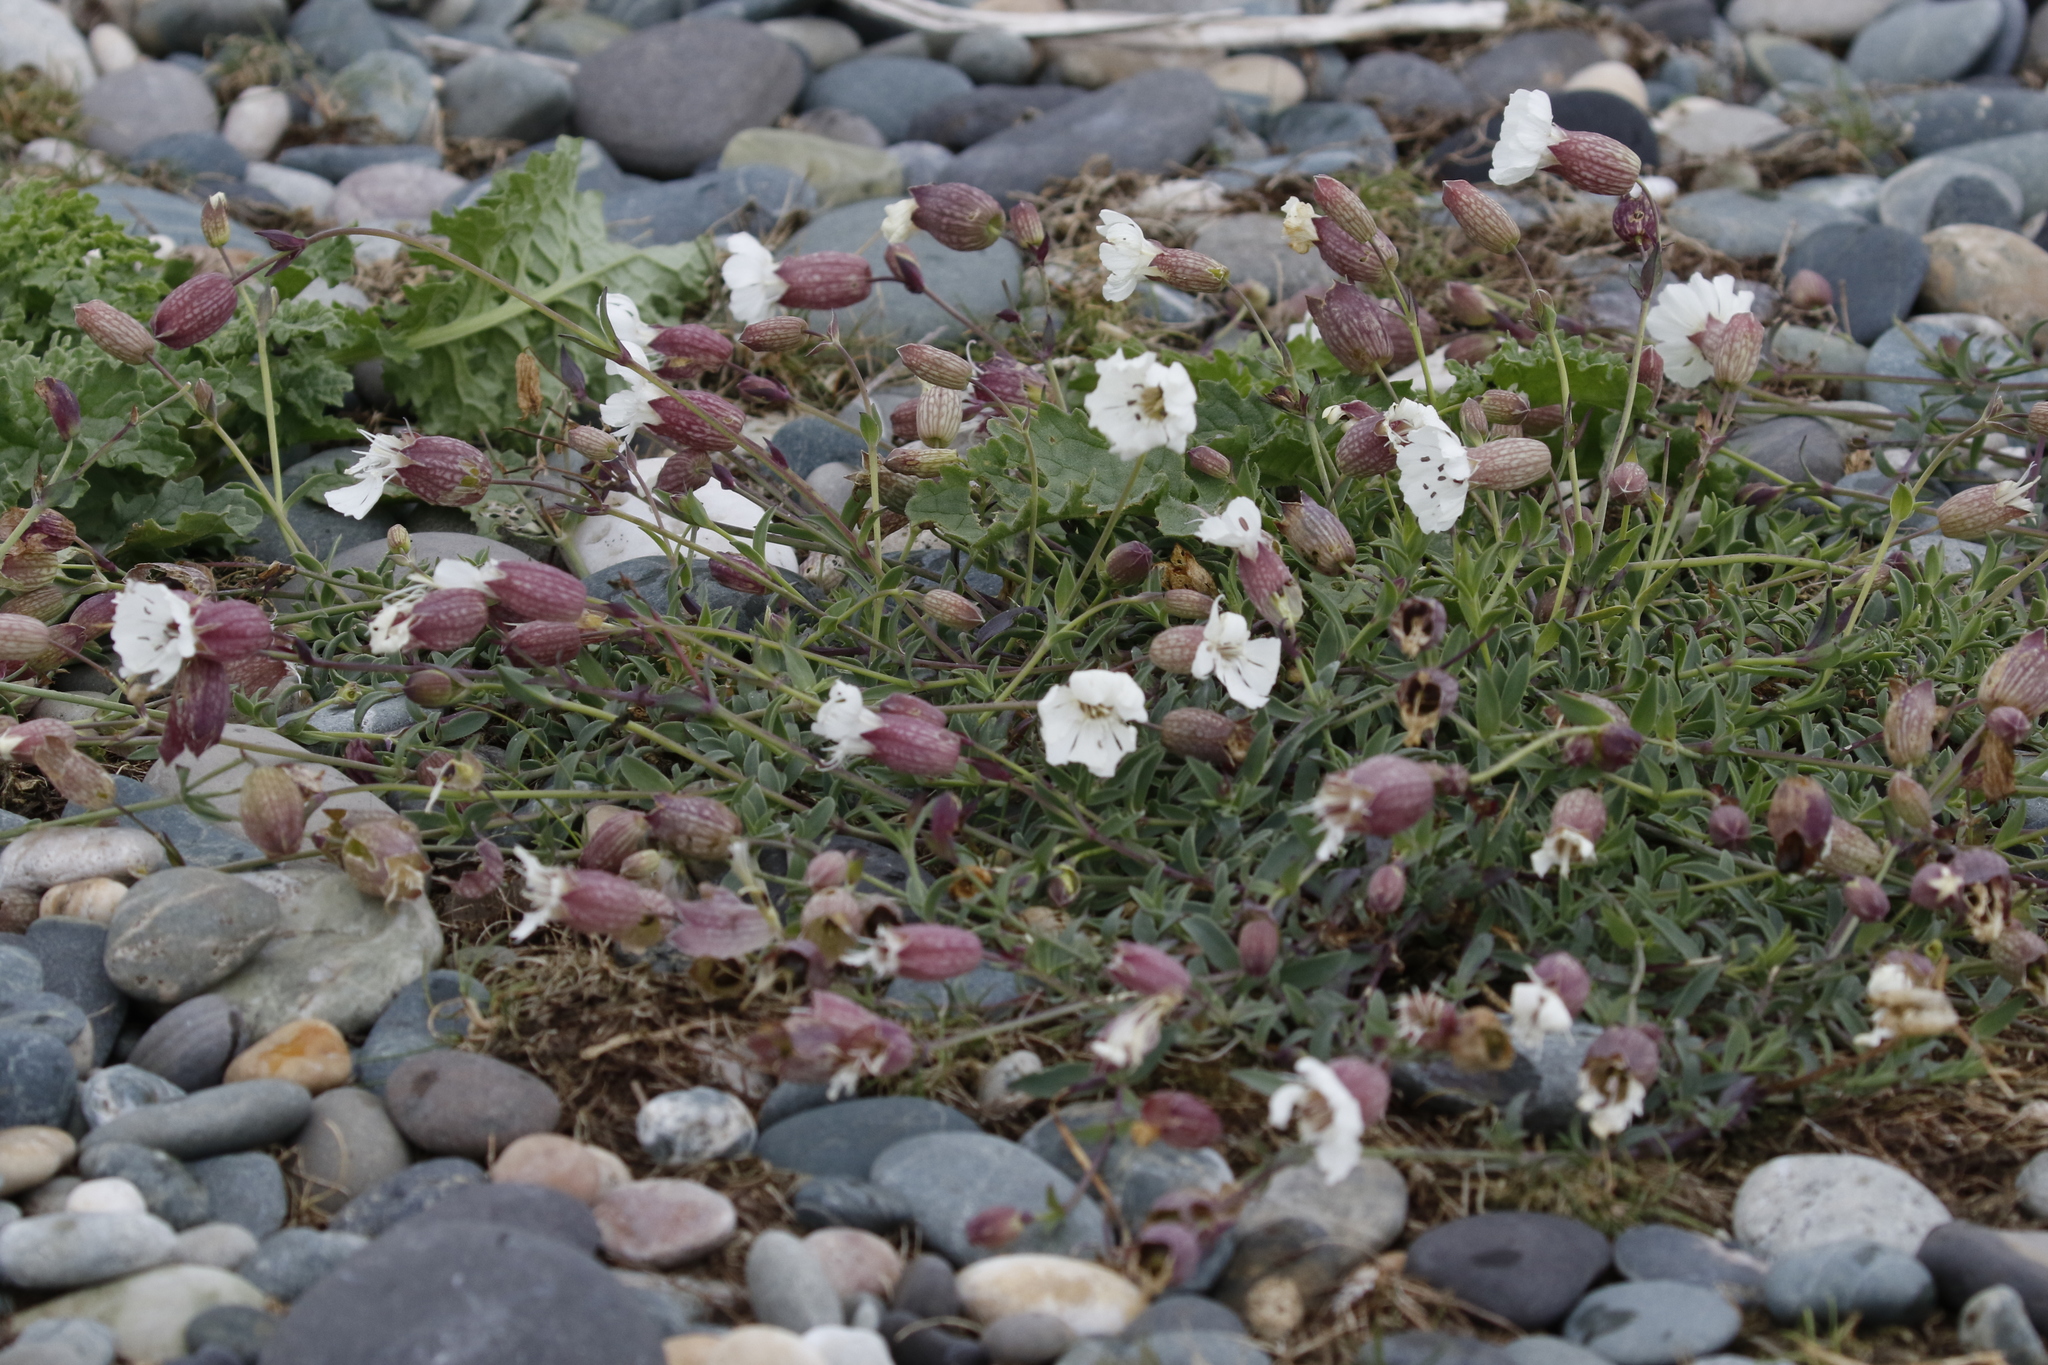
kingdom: Plantae
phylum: Tracheophyta
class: Magnoliopsida
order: Caryophyllales
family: Caryophyllaceae
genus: Silene
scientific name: Silene uniflora
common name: Sea campion
